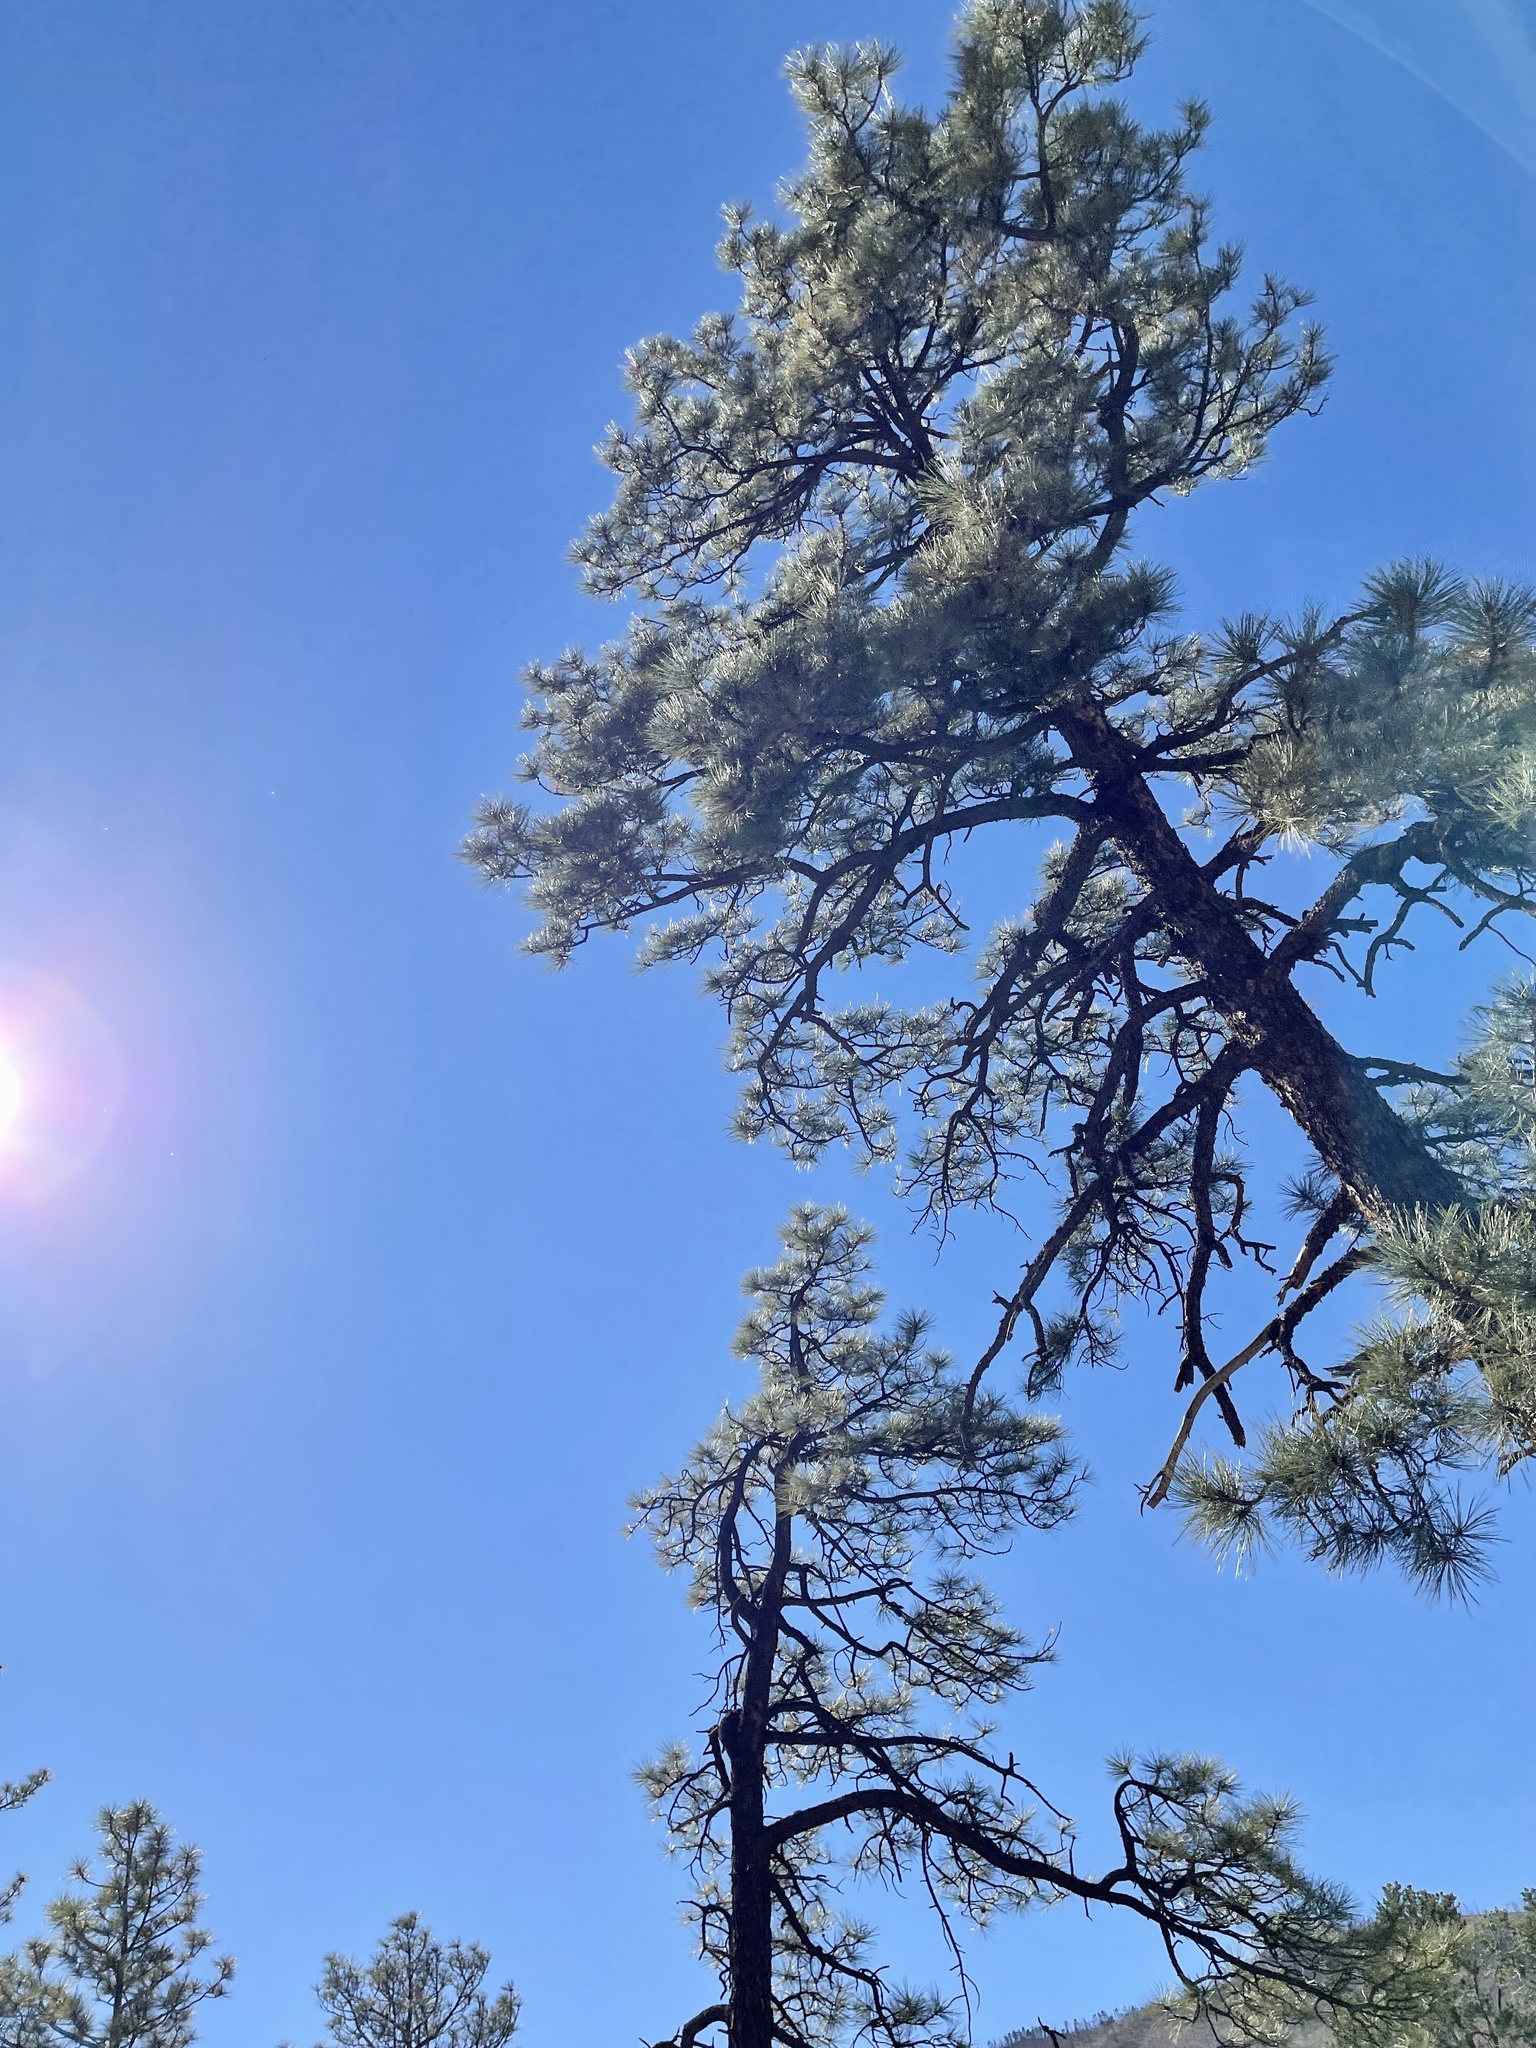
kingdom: Plantae
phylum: Tracheophyta
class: Pinopsida
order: Pinales
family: Pinaceae
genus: Pinus
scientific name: Pinus ponderosa
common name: Western yellow-pine
